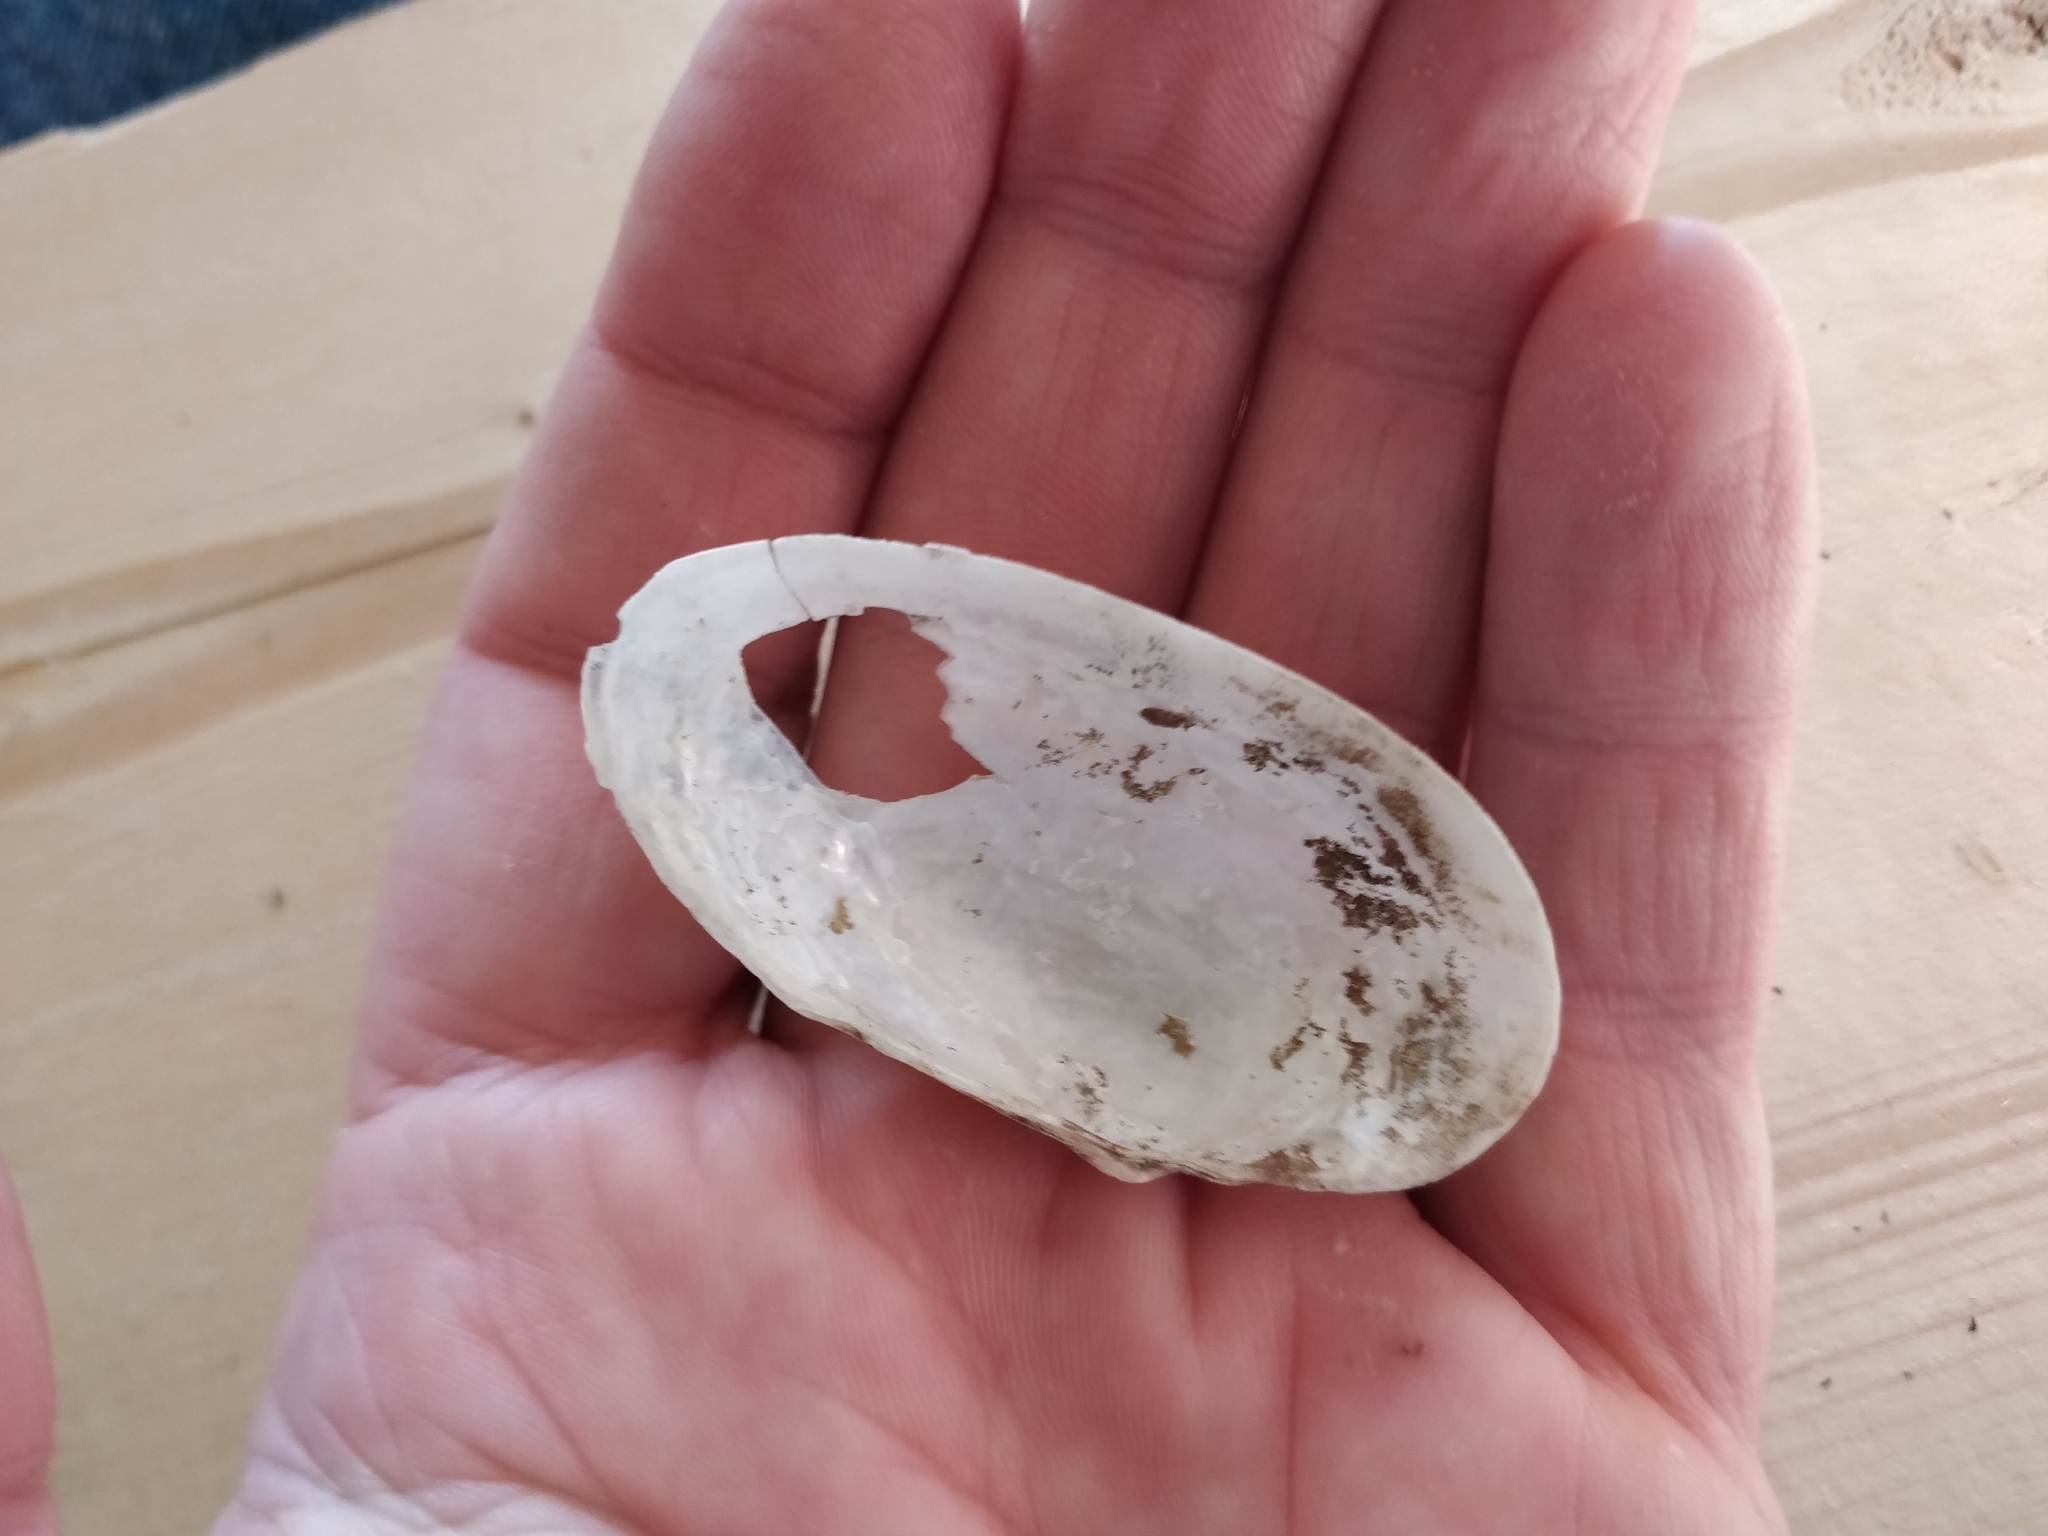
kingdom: Animalia
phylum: Mollusca
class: Bivalvia
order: Unionida
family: Unionidae
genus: Anodontoides
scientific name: Anodontoides ferussacianus
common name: Cylindrical papershell
